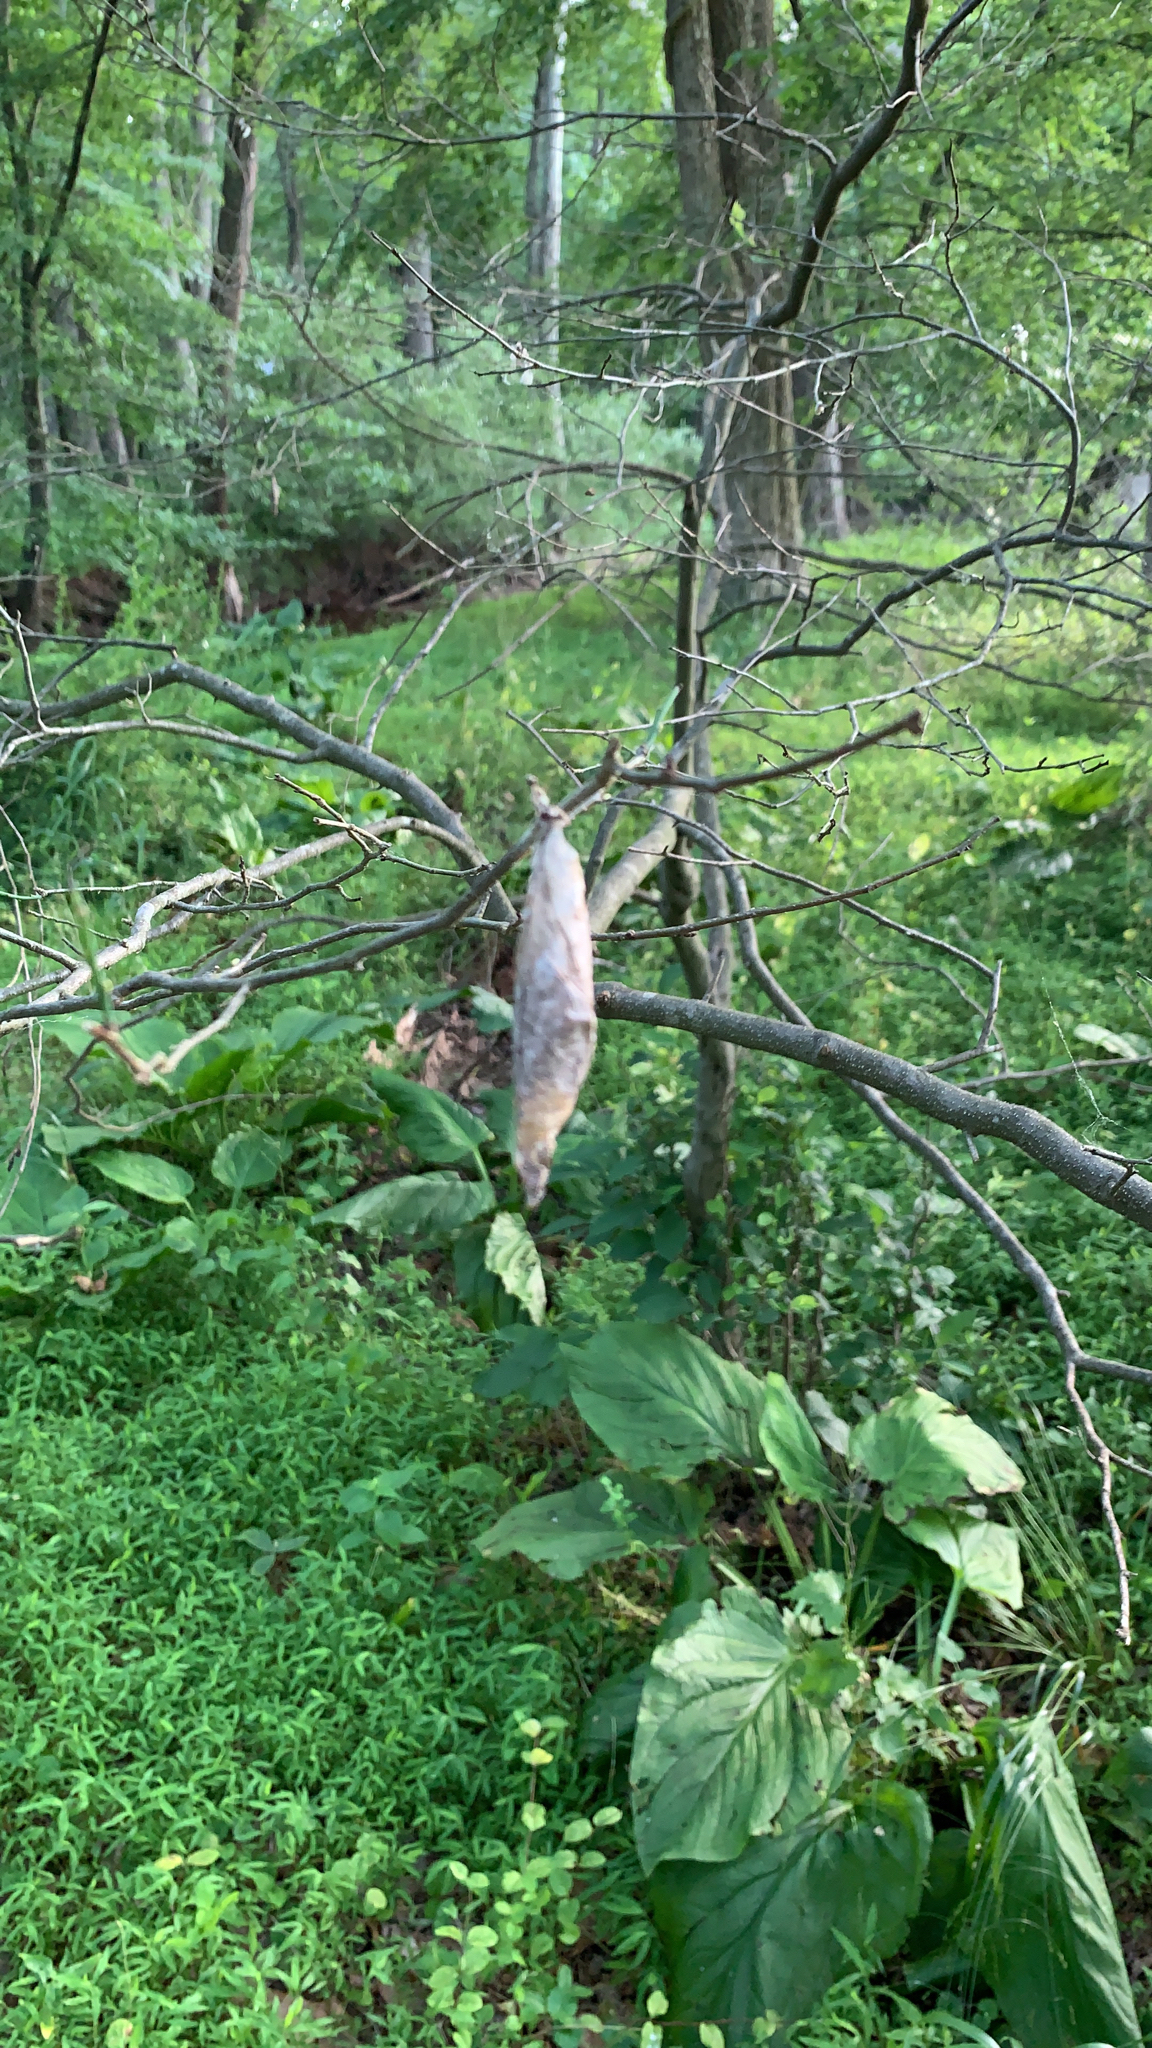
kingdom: Animalia
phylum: Arthropoda
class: Insecta
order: Lepidoptera
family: Saturniidae
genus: Callosamia
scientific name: Callosamia promethea
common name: Promethea silkmoth
